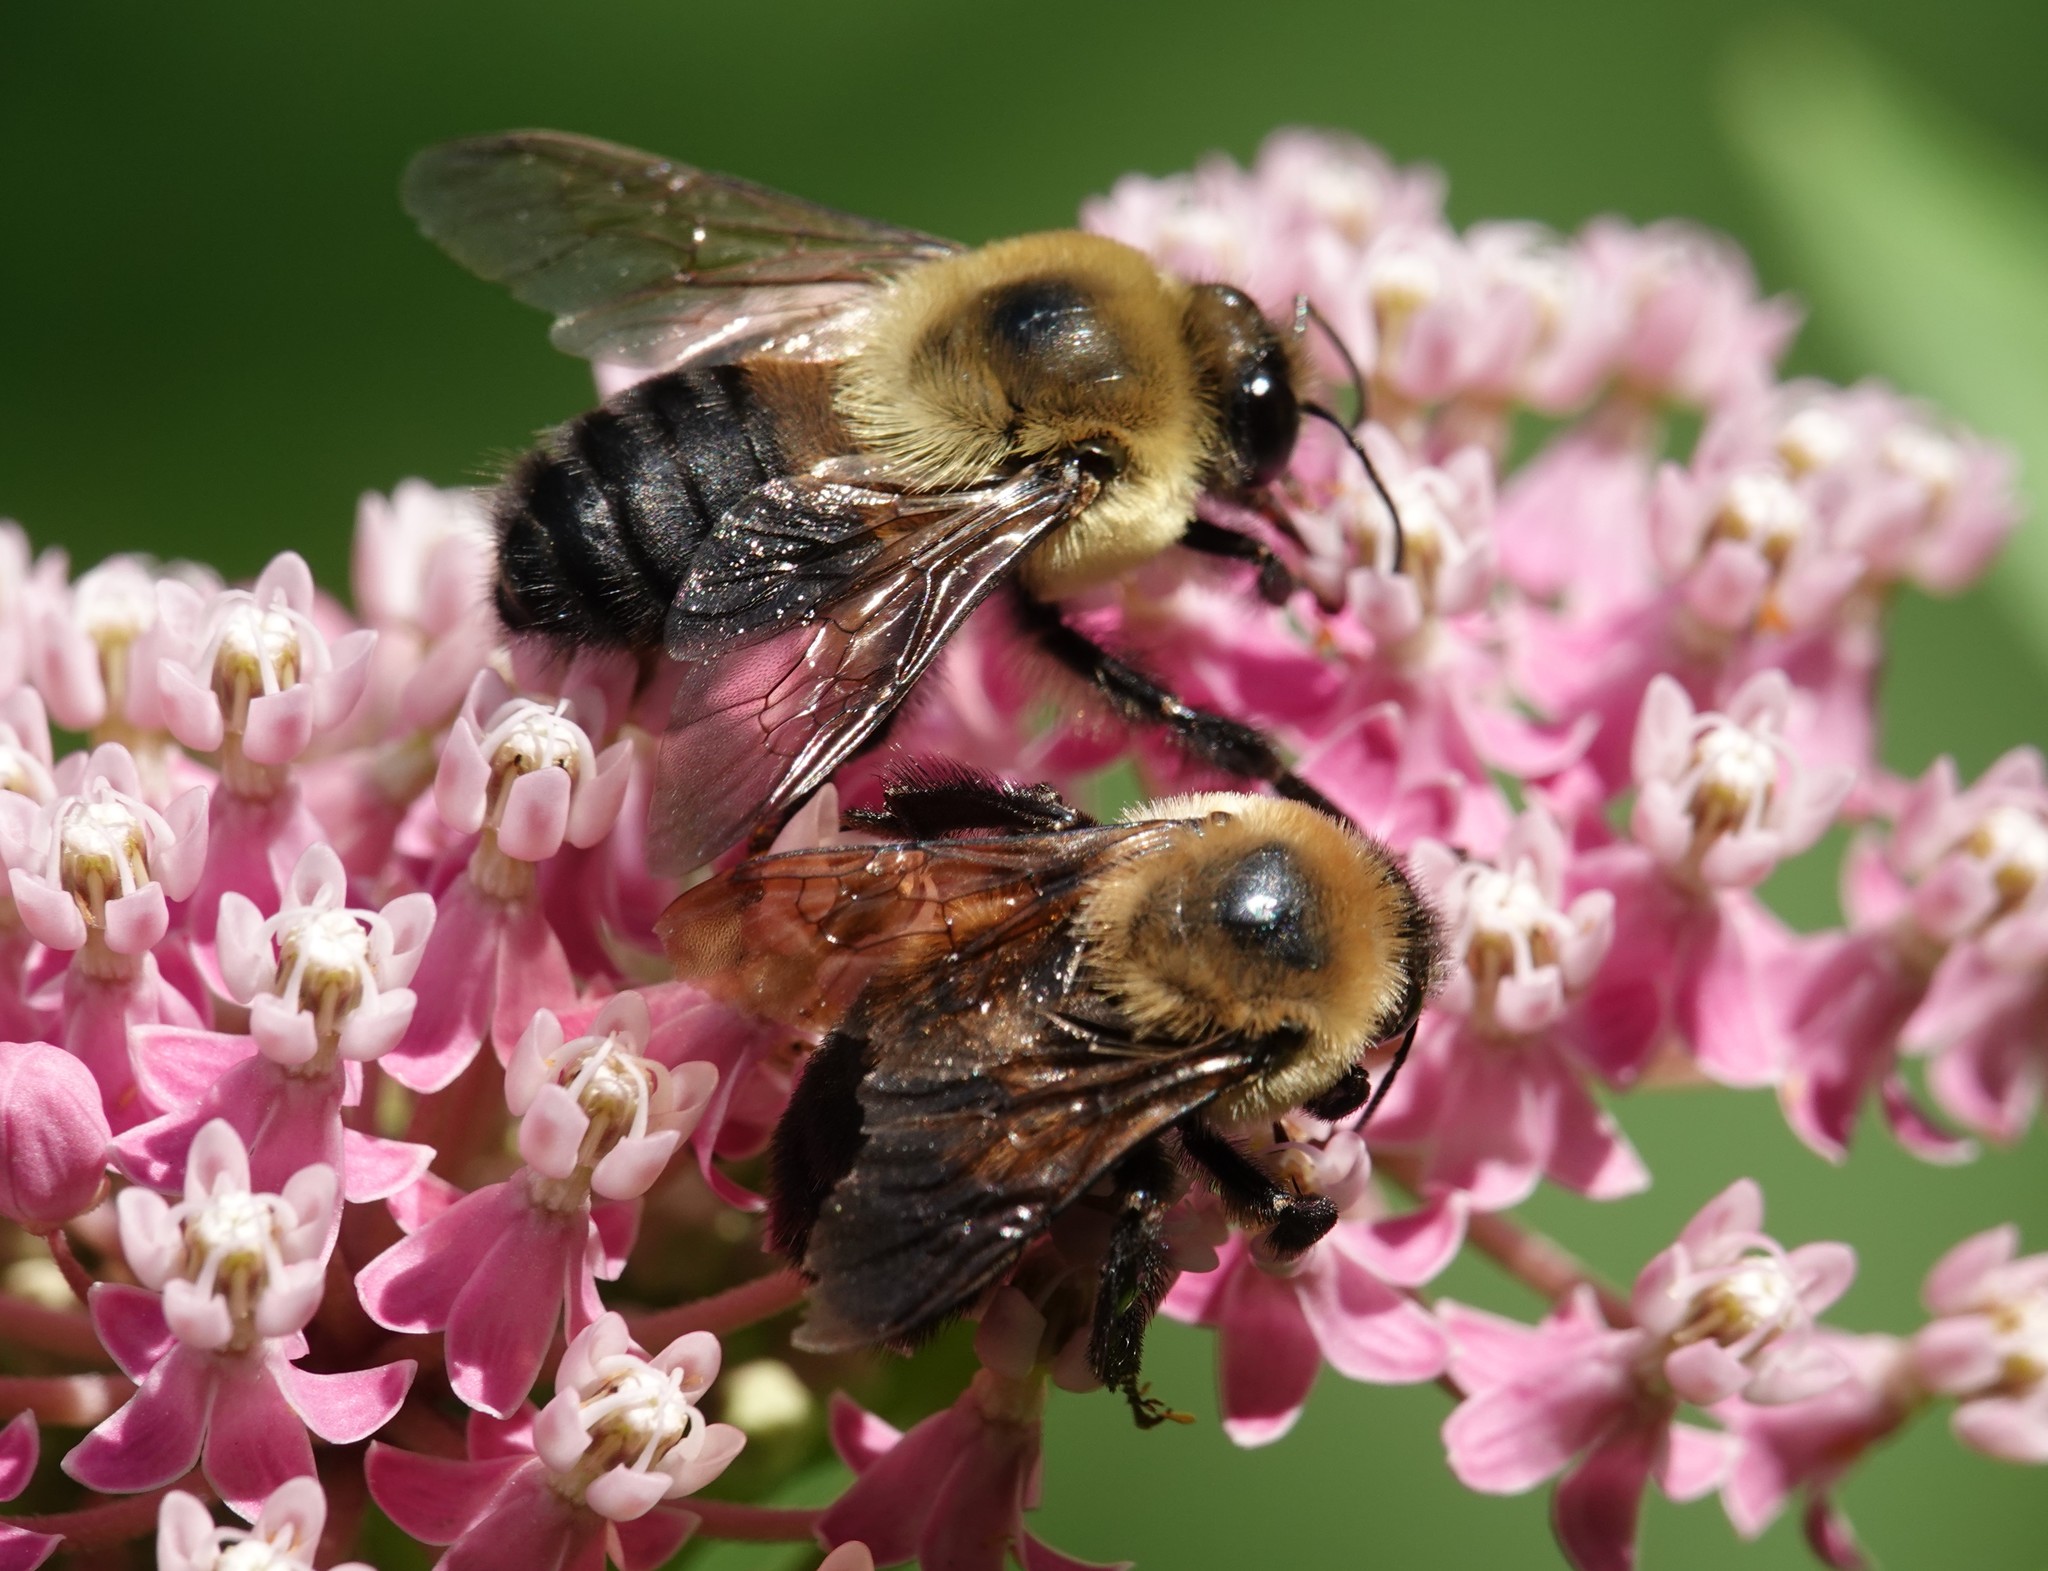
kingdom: Animalia
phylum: Arthropoda
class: Insecta
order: Hymenoptera
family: Apidae
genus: Bombus
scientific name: Bombus griseocollis
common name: Brown-belted bumble bee
